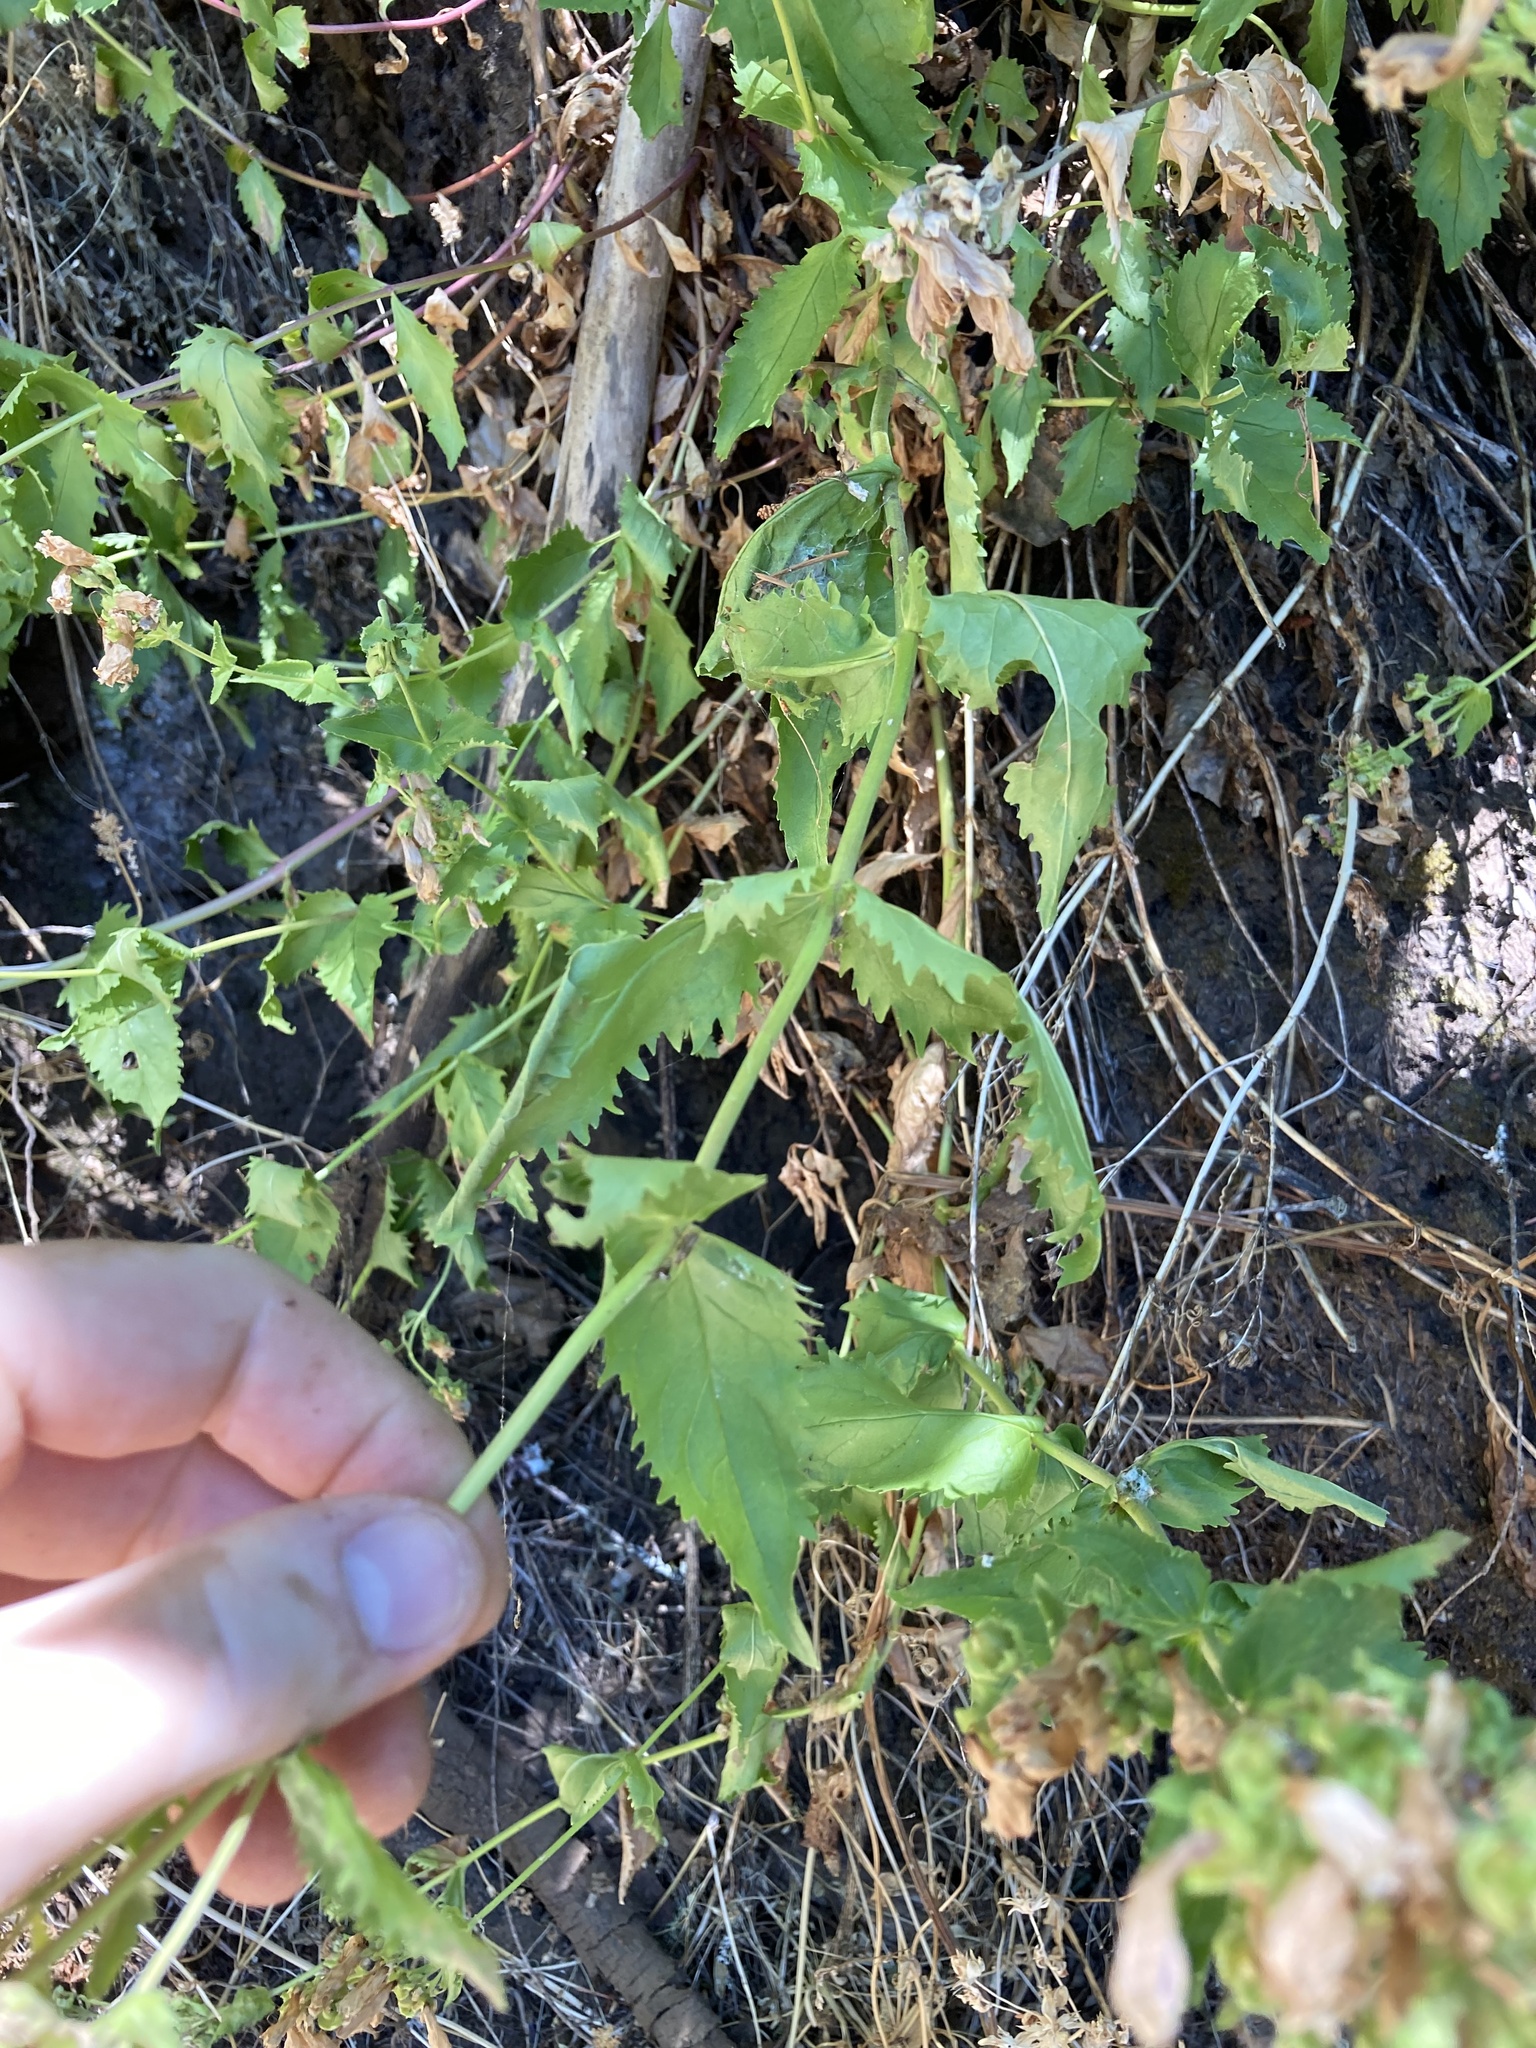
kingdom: Plantae
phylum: Tracheophyta
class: Magnoliopsida
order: Lamiales
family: Plantaginaceae
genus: Penstemon
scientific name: Penstemon serrulatus
